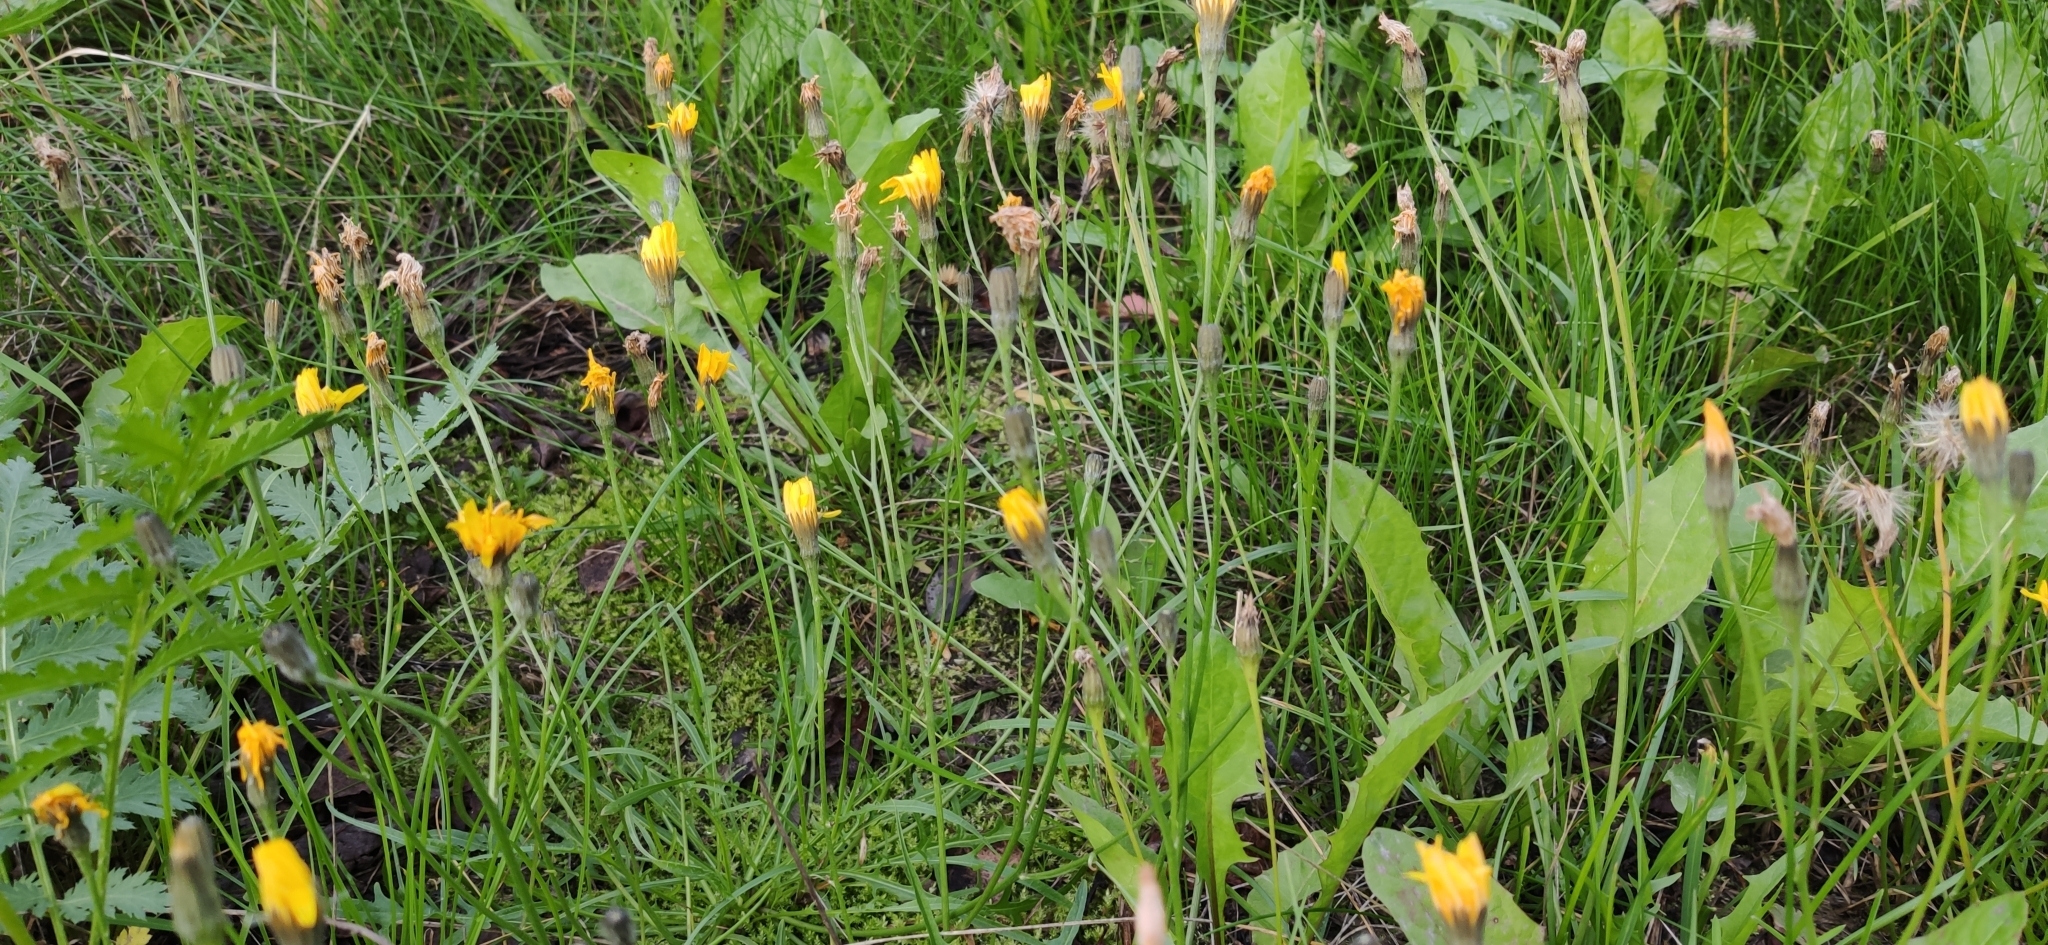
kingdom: Plantae
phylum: Tracheophyta
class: Magnoliopsida
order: Asterales
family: Asteraceae
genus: Scorzoneroides
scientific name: Scorzoneroides autumnalis
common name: Autumn hawkbit
